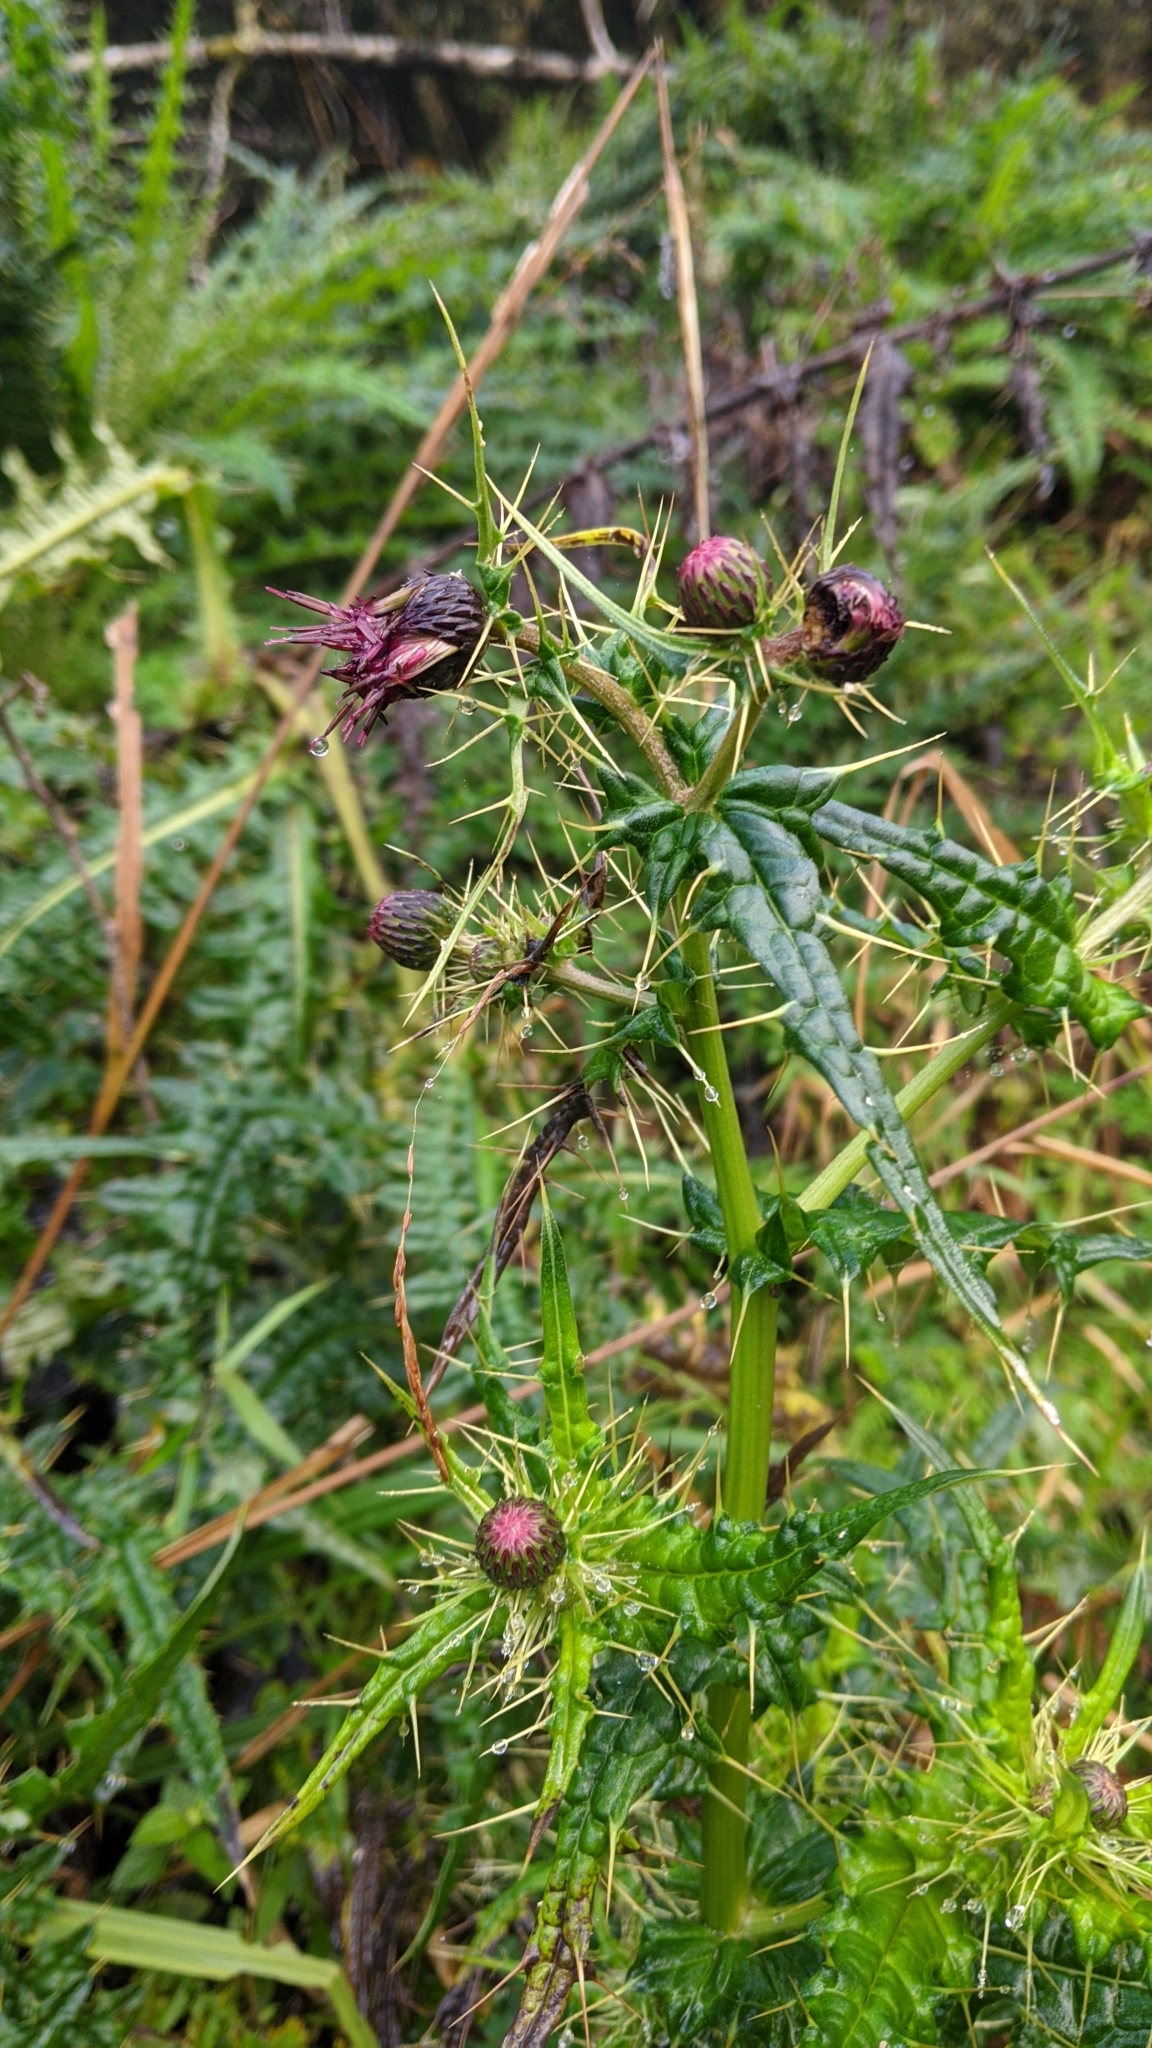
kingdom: Plantae
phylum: Tracheophyta
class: Magnoliopsida
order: Asterales
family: Asteraceae
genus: Cirsium
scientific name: Cirsium suzukii
